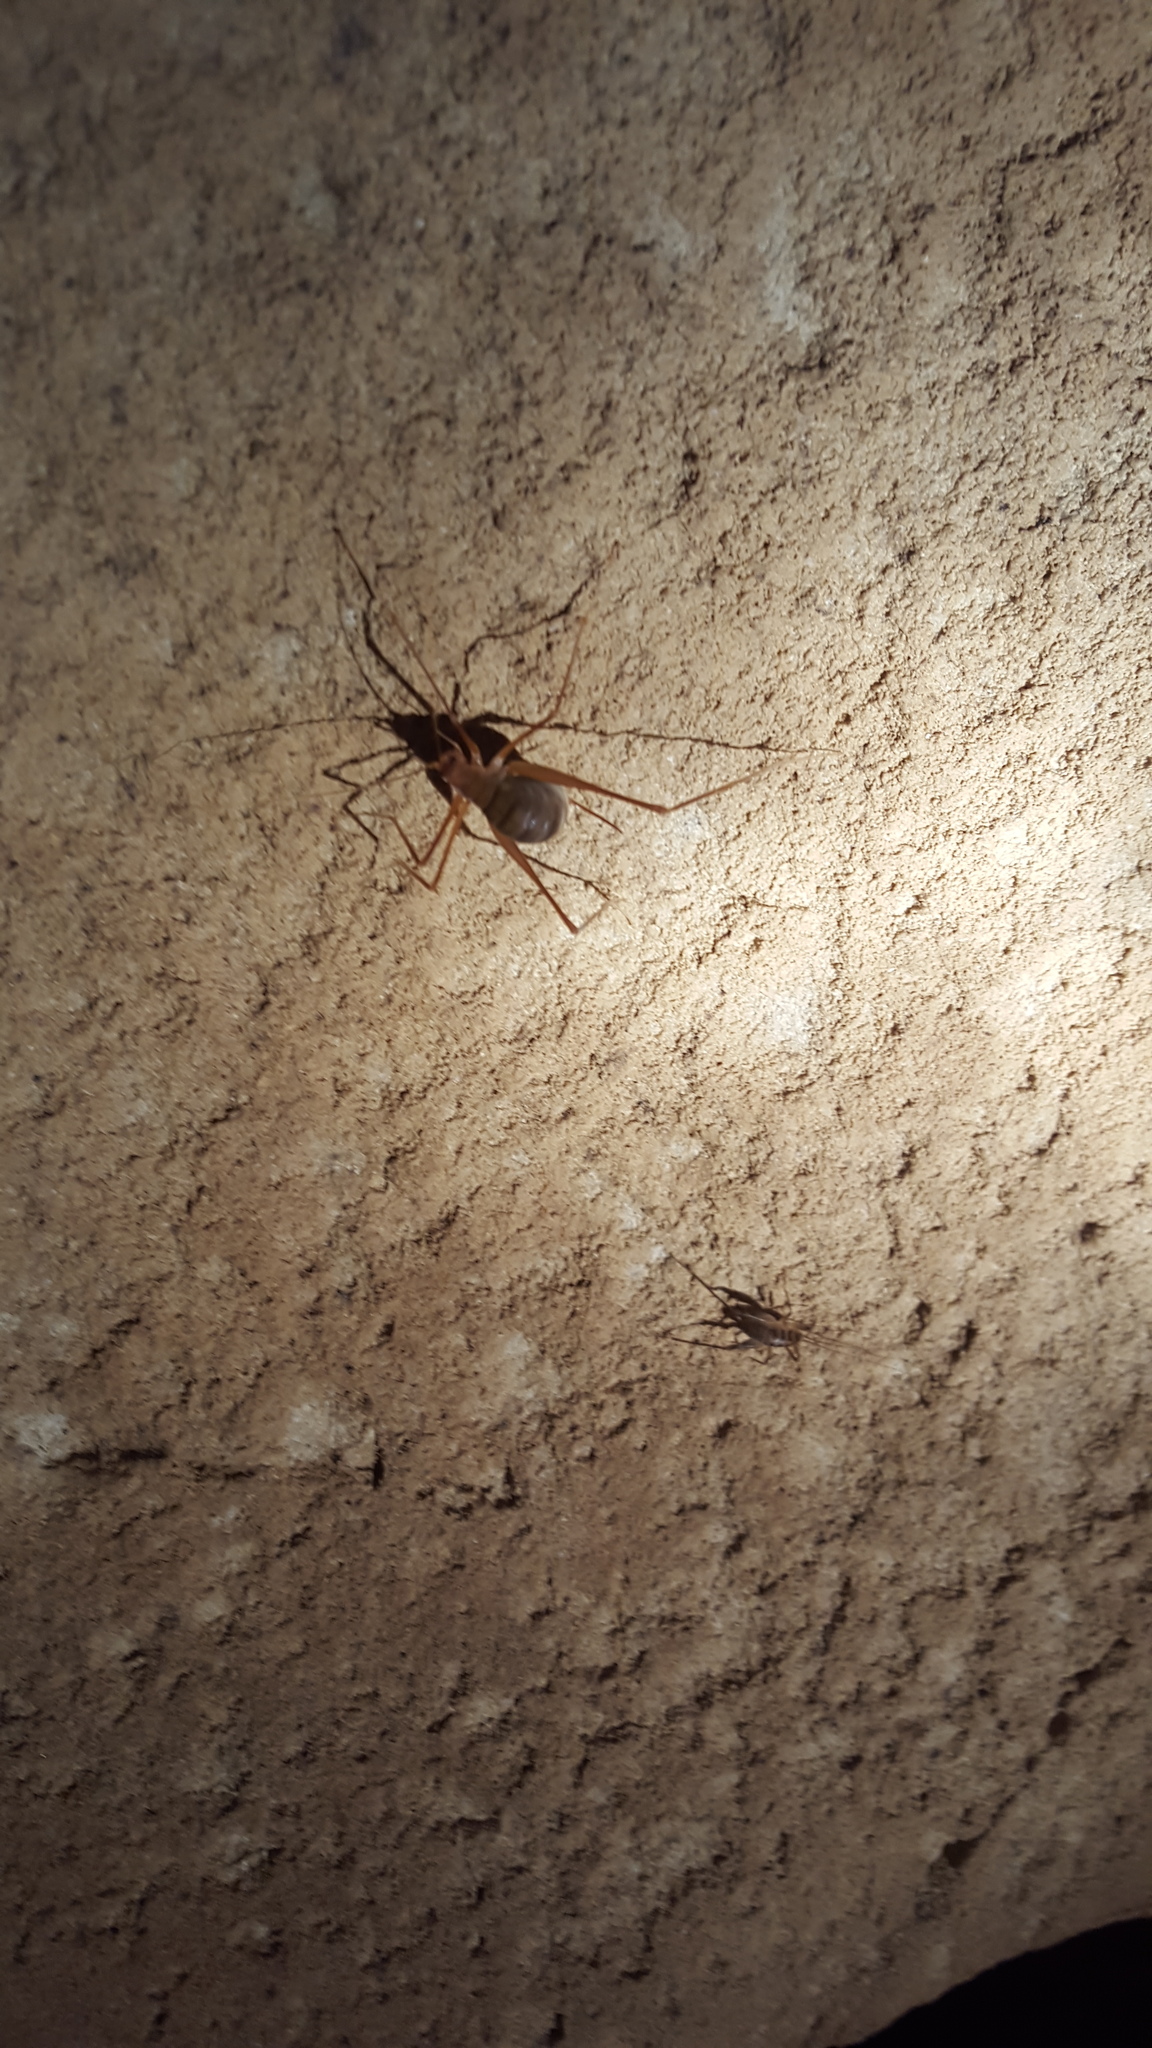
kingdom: Animalia
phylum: Arthropoda
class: Insecta
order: Orthoptera
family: Rhaphidophoridae
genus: Hadenoecus
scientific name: Hadenoecus subterraneus
